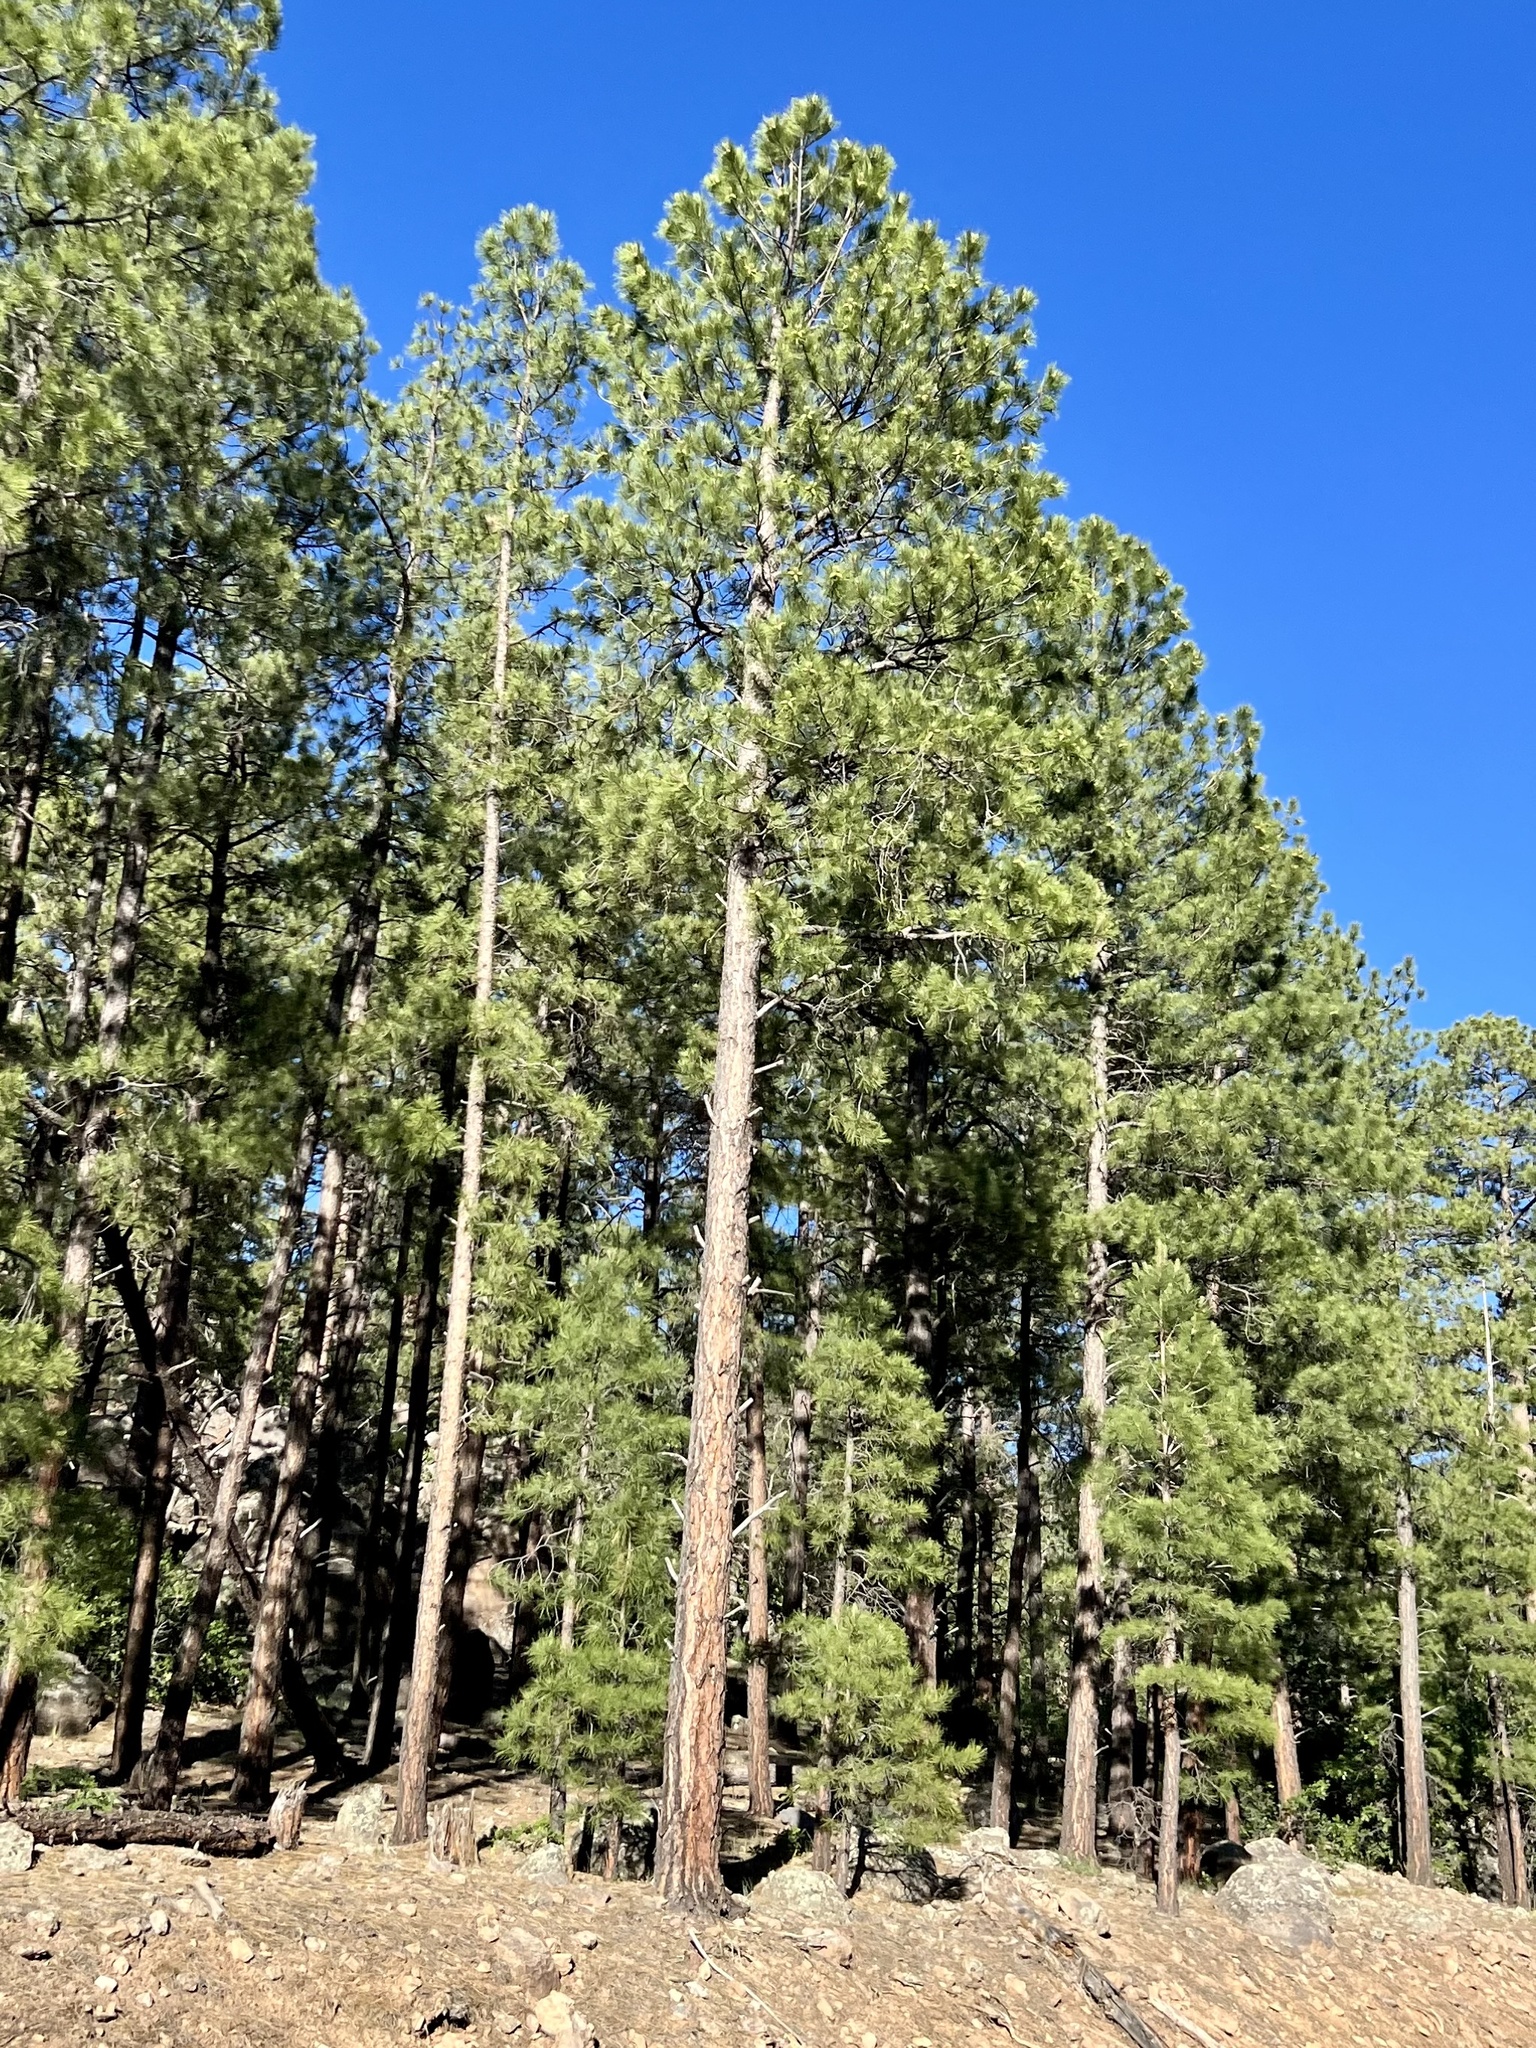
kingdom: Plantae
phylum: Tracheophyta
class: Pinopsida
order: Pinales
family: Pinaceae
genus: Pinus
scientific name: Pinus ponderosa
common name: Western yellow-pine
